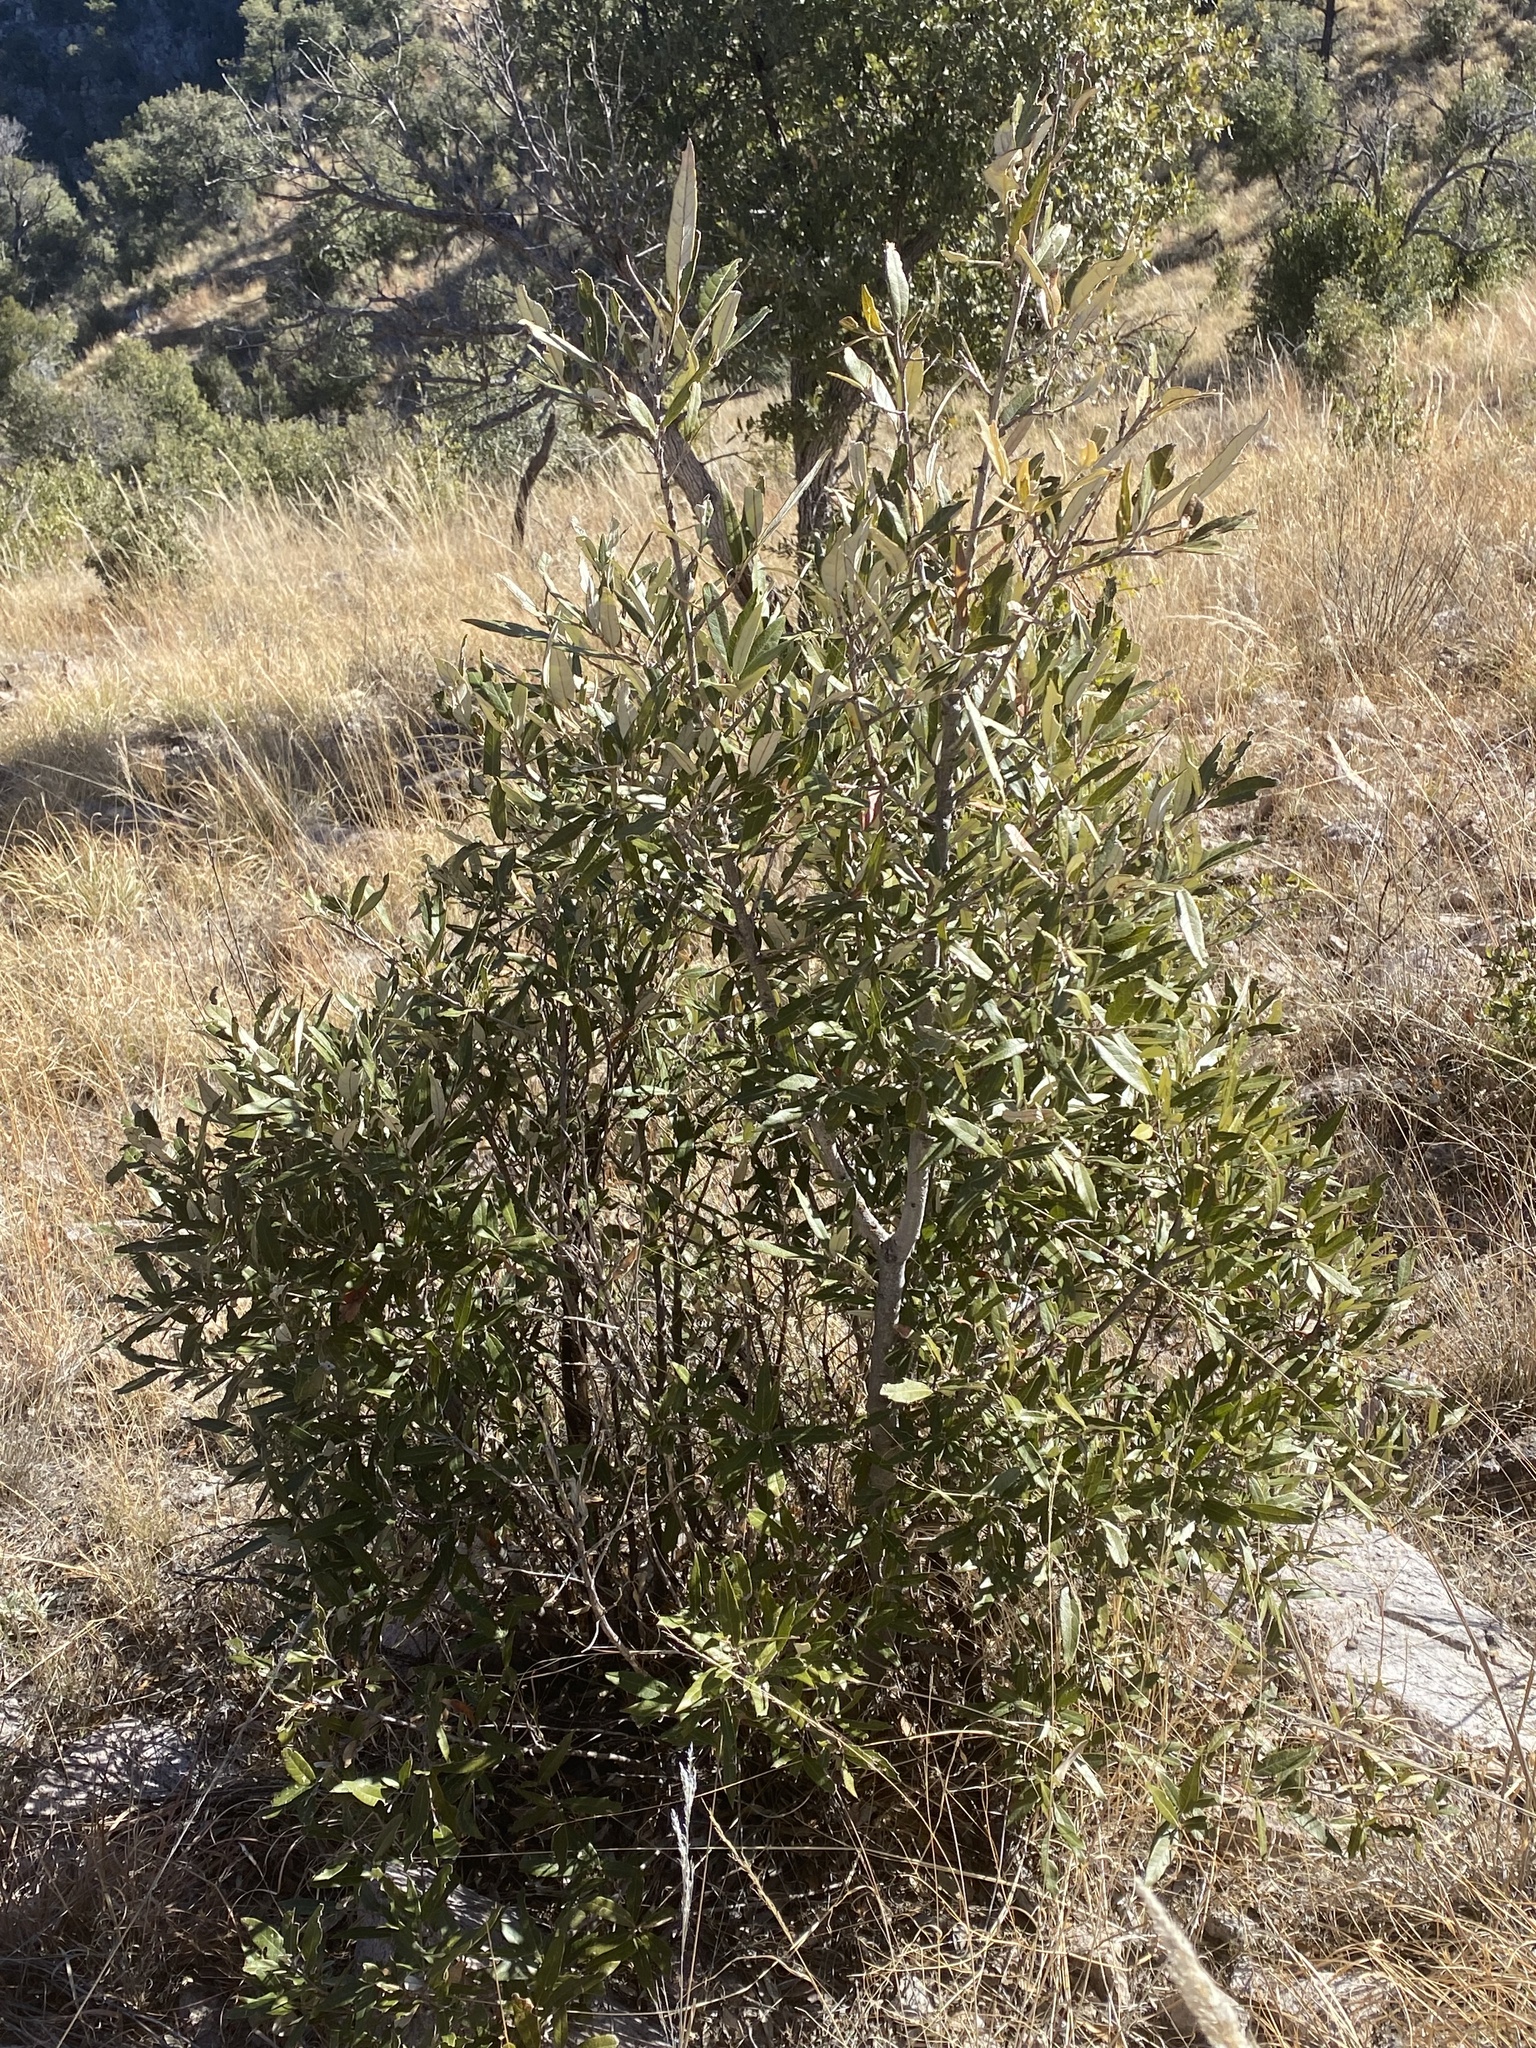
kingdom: Plantae
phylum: Tracheophyta
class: Magnoliopsida
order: Fagales
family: Fagaceae
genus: Quercus
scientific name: Quercus hypoleucoides
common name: Silverleaf oak
